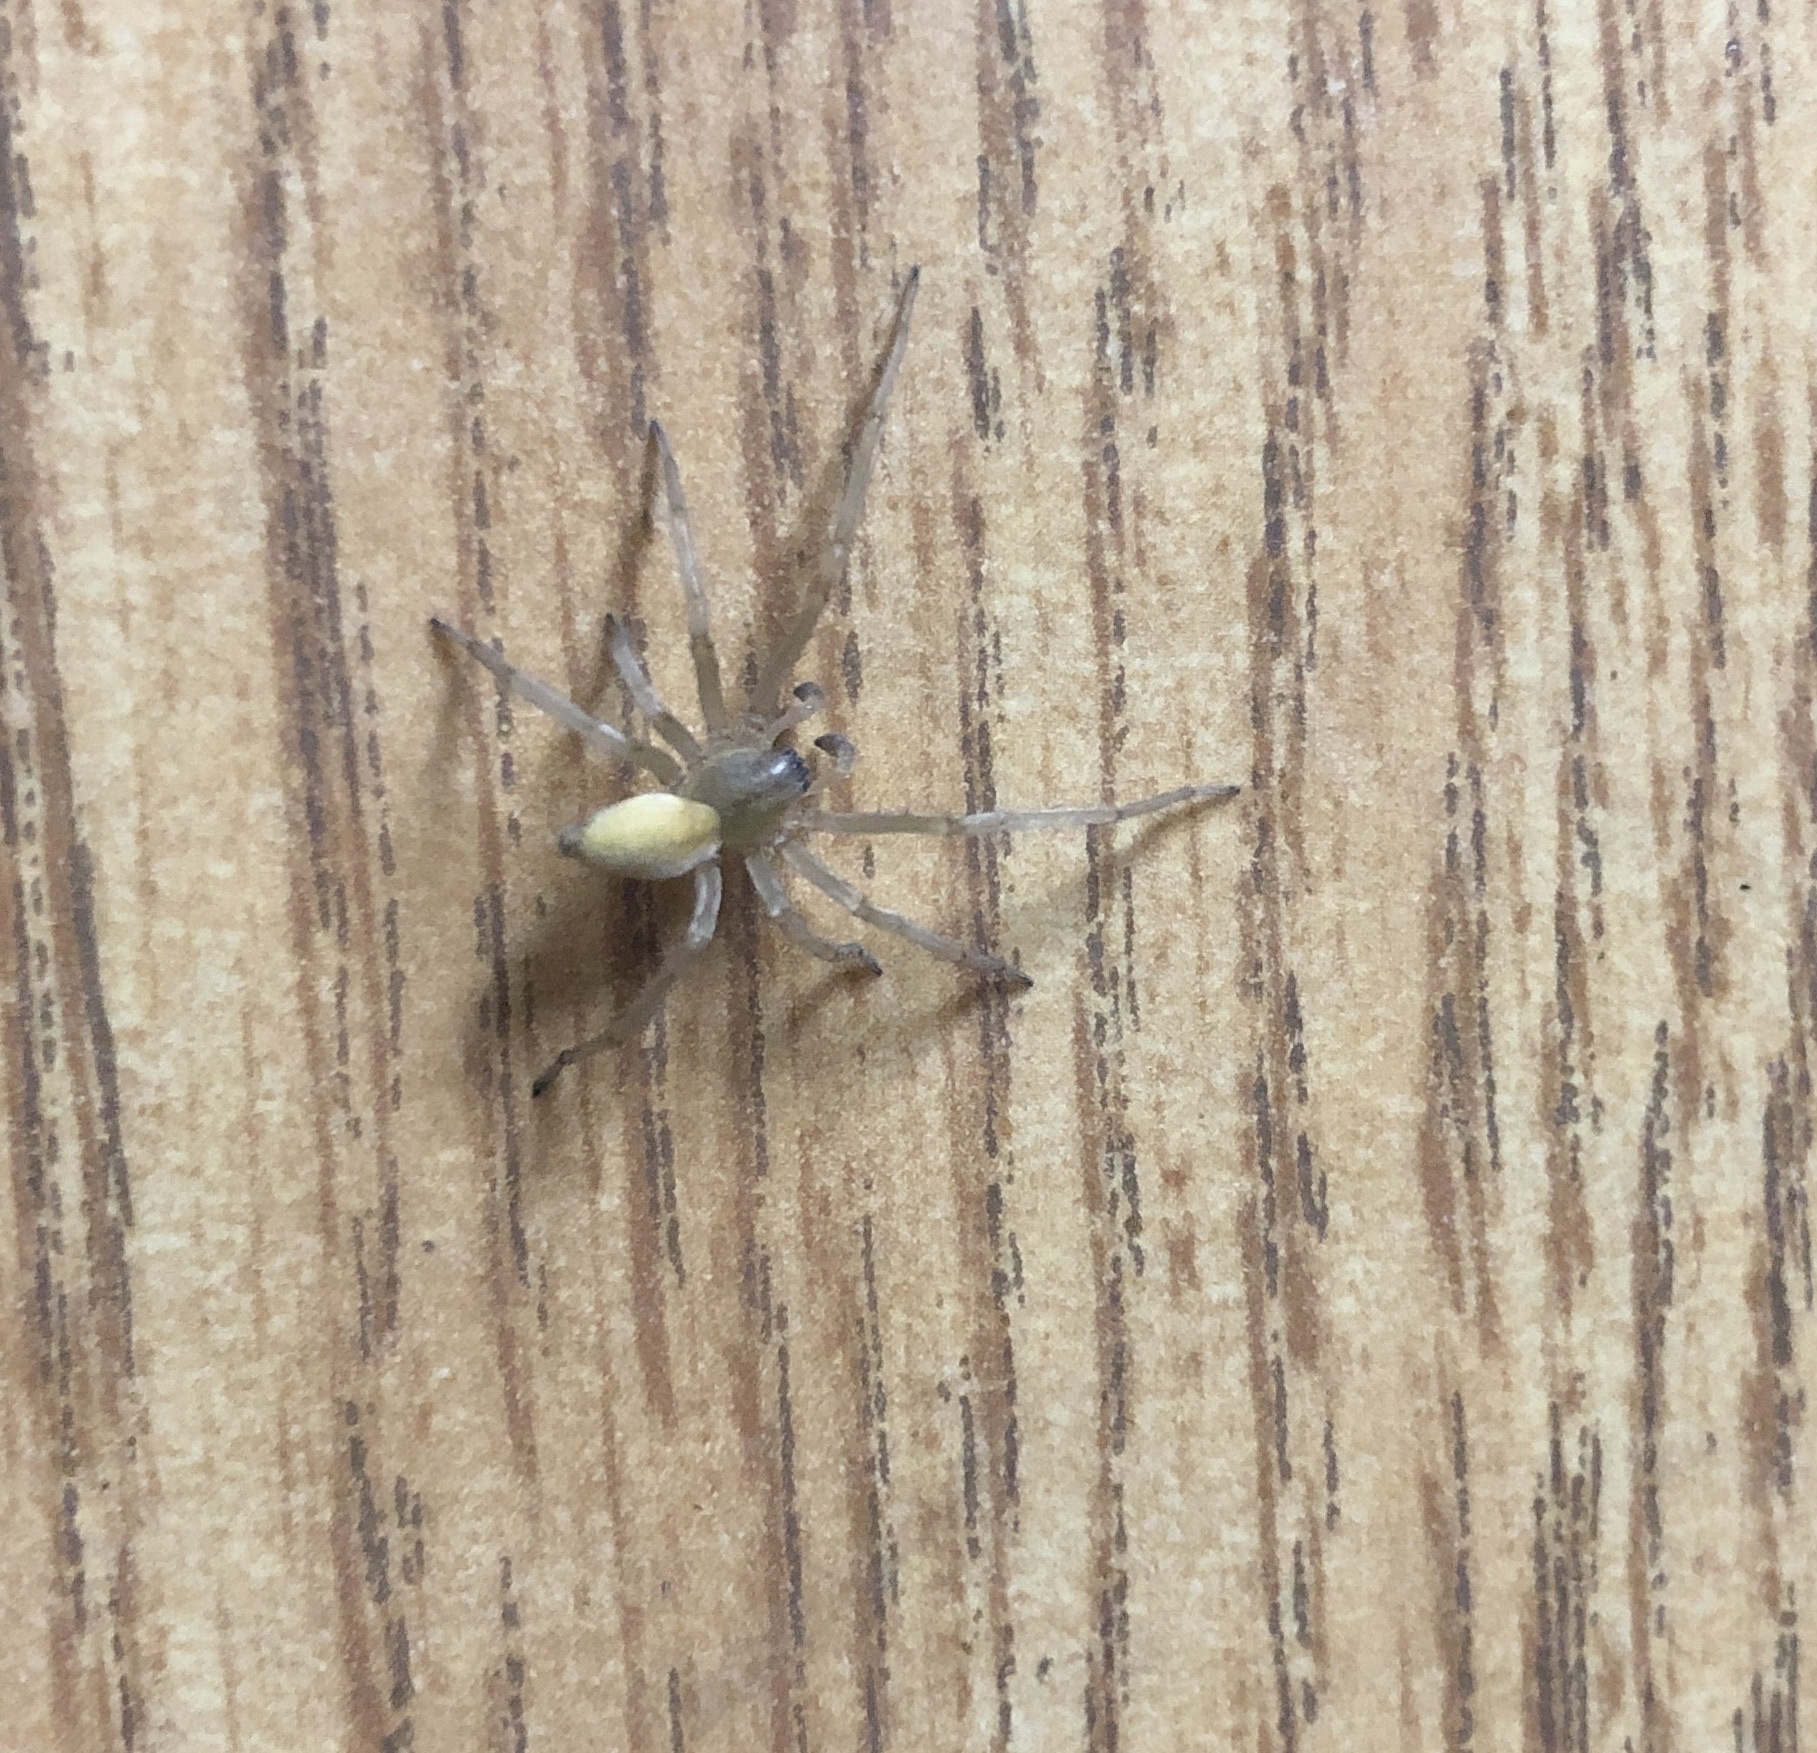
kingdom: Animalia
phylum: Arthropoda
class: Arachnida
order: Araneae
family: Cheiracanthiidae
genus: Cheiracanthium
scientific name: Cheiracanthium mildei
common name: Northern yellow sac spider
